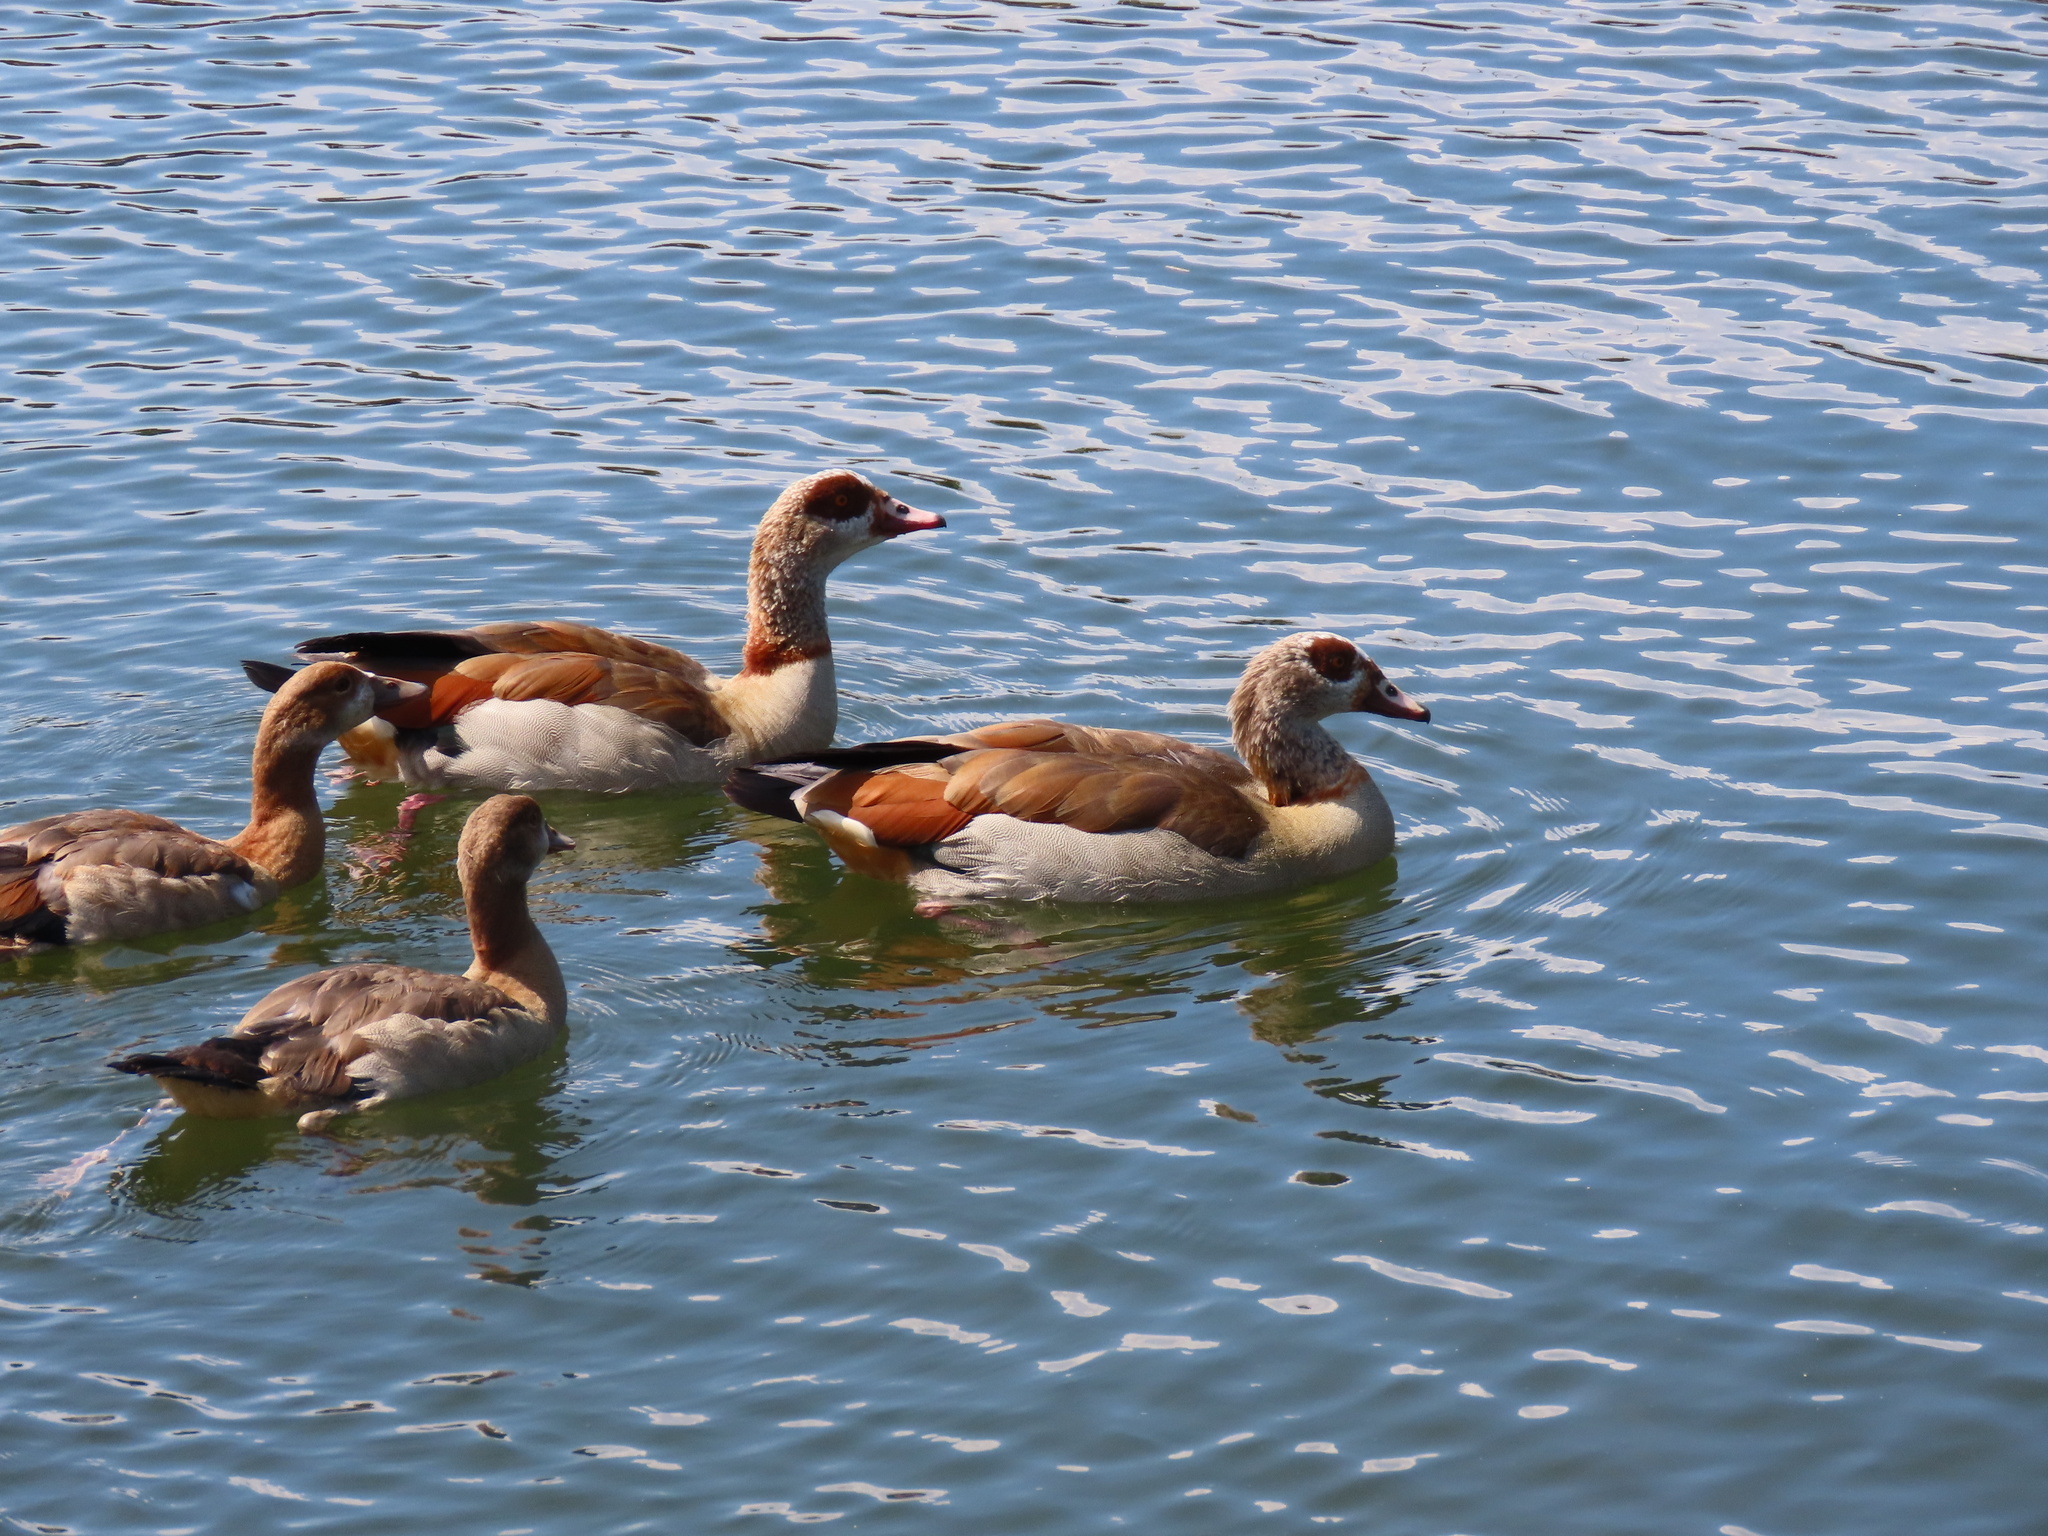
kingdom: Animalia
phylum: Chordata
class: Aves
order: Anseriformes
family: Anatidae
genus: Alopochen
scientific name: Alopochen aegyptiaca
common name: Egyptian goose
